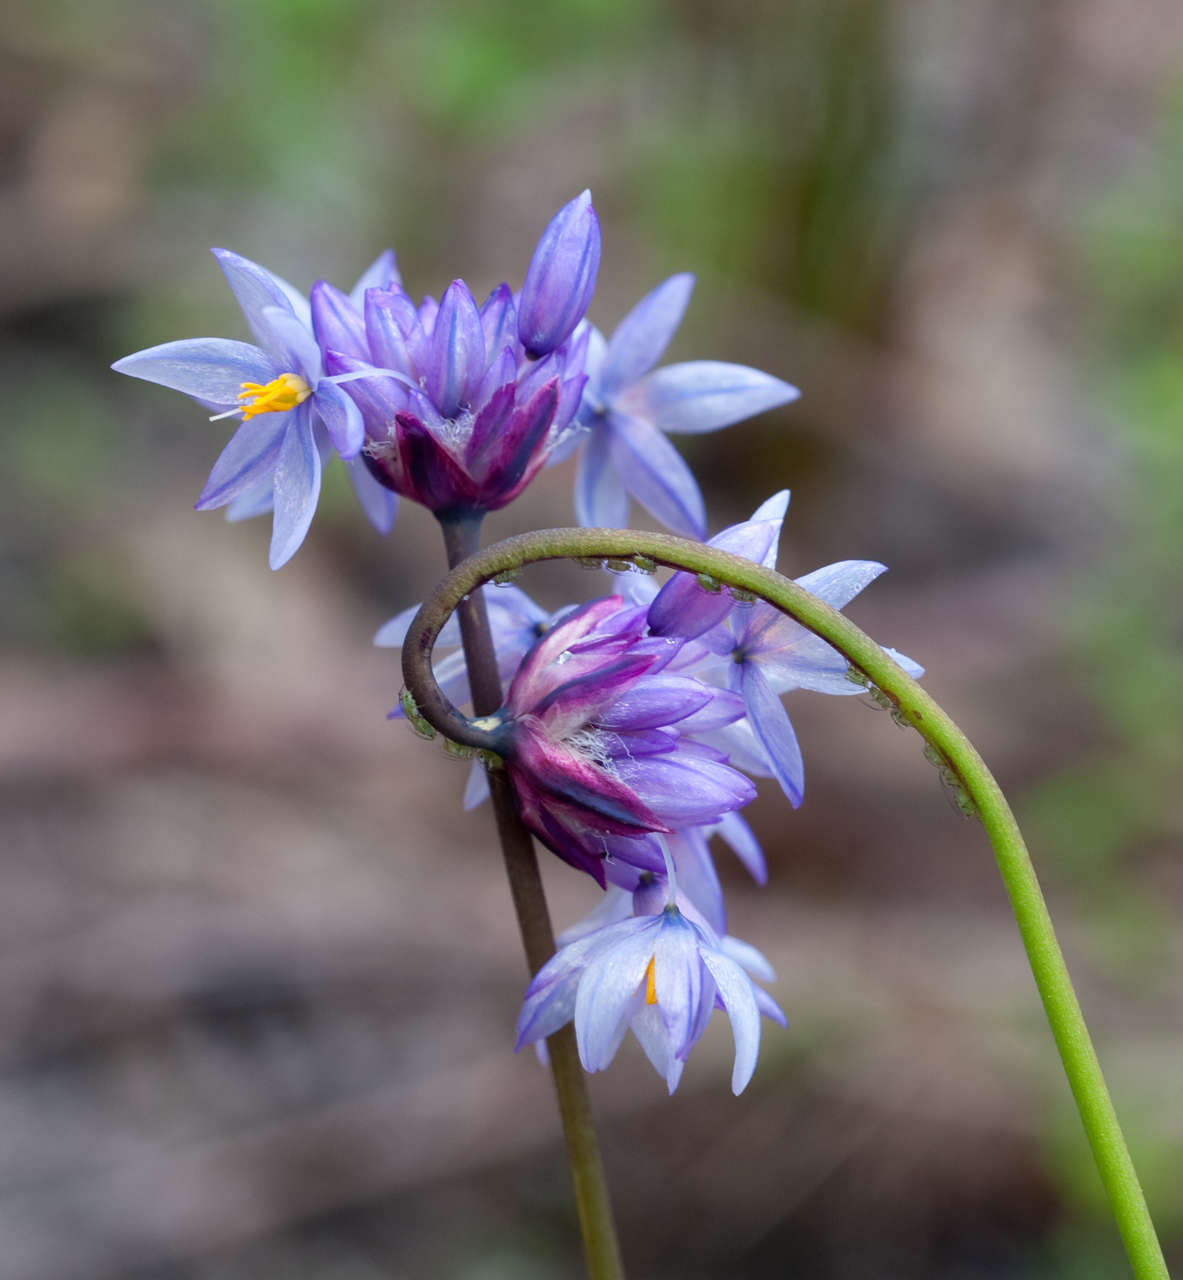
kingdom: Plantae
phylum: Tracheophyta
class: Liliopsida
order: Asparagales
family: Asparagaceae
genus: Sowerbaea
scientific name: Sowerbaea juncea
